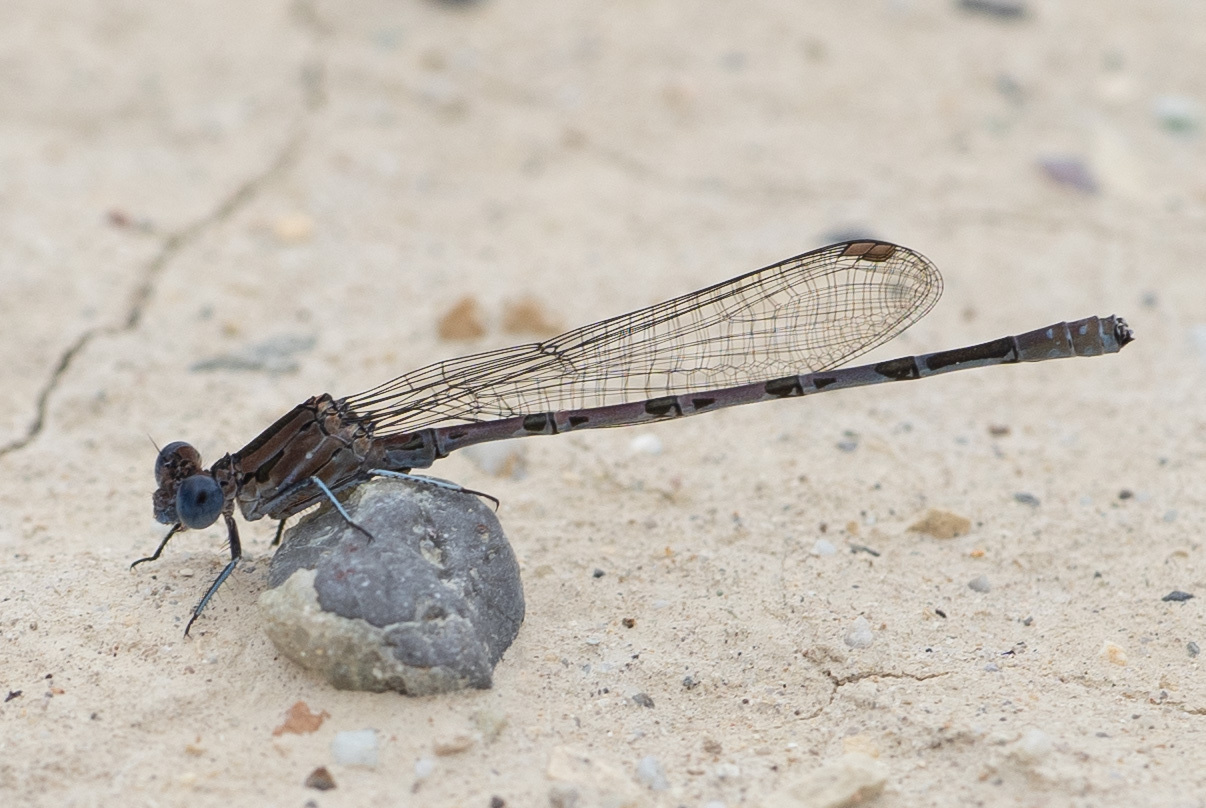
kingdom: Animalia
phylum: Arthropoda
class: Insecta
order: Odonata
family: Coenagrionidae
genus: Argia
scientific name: Argia vivida
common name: Vivid dancer
